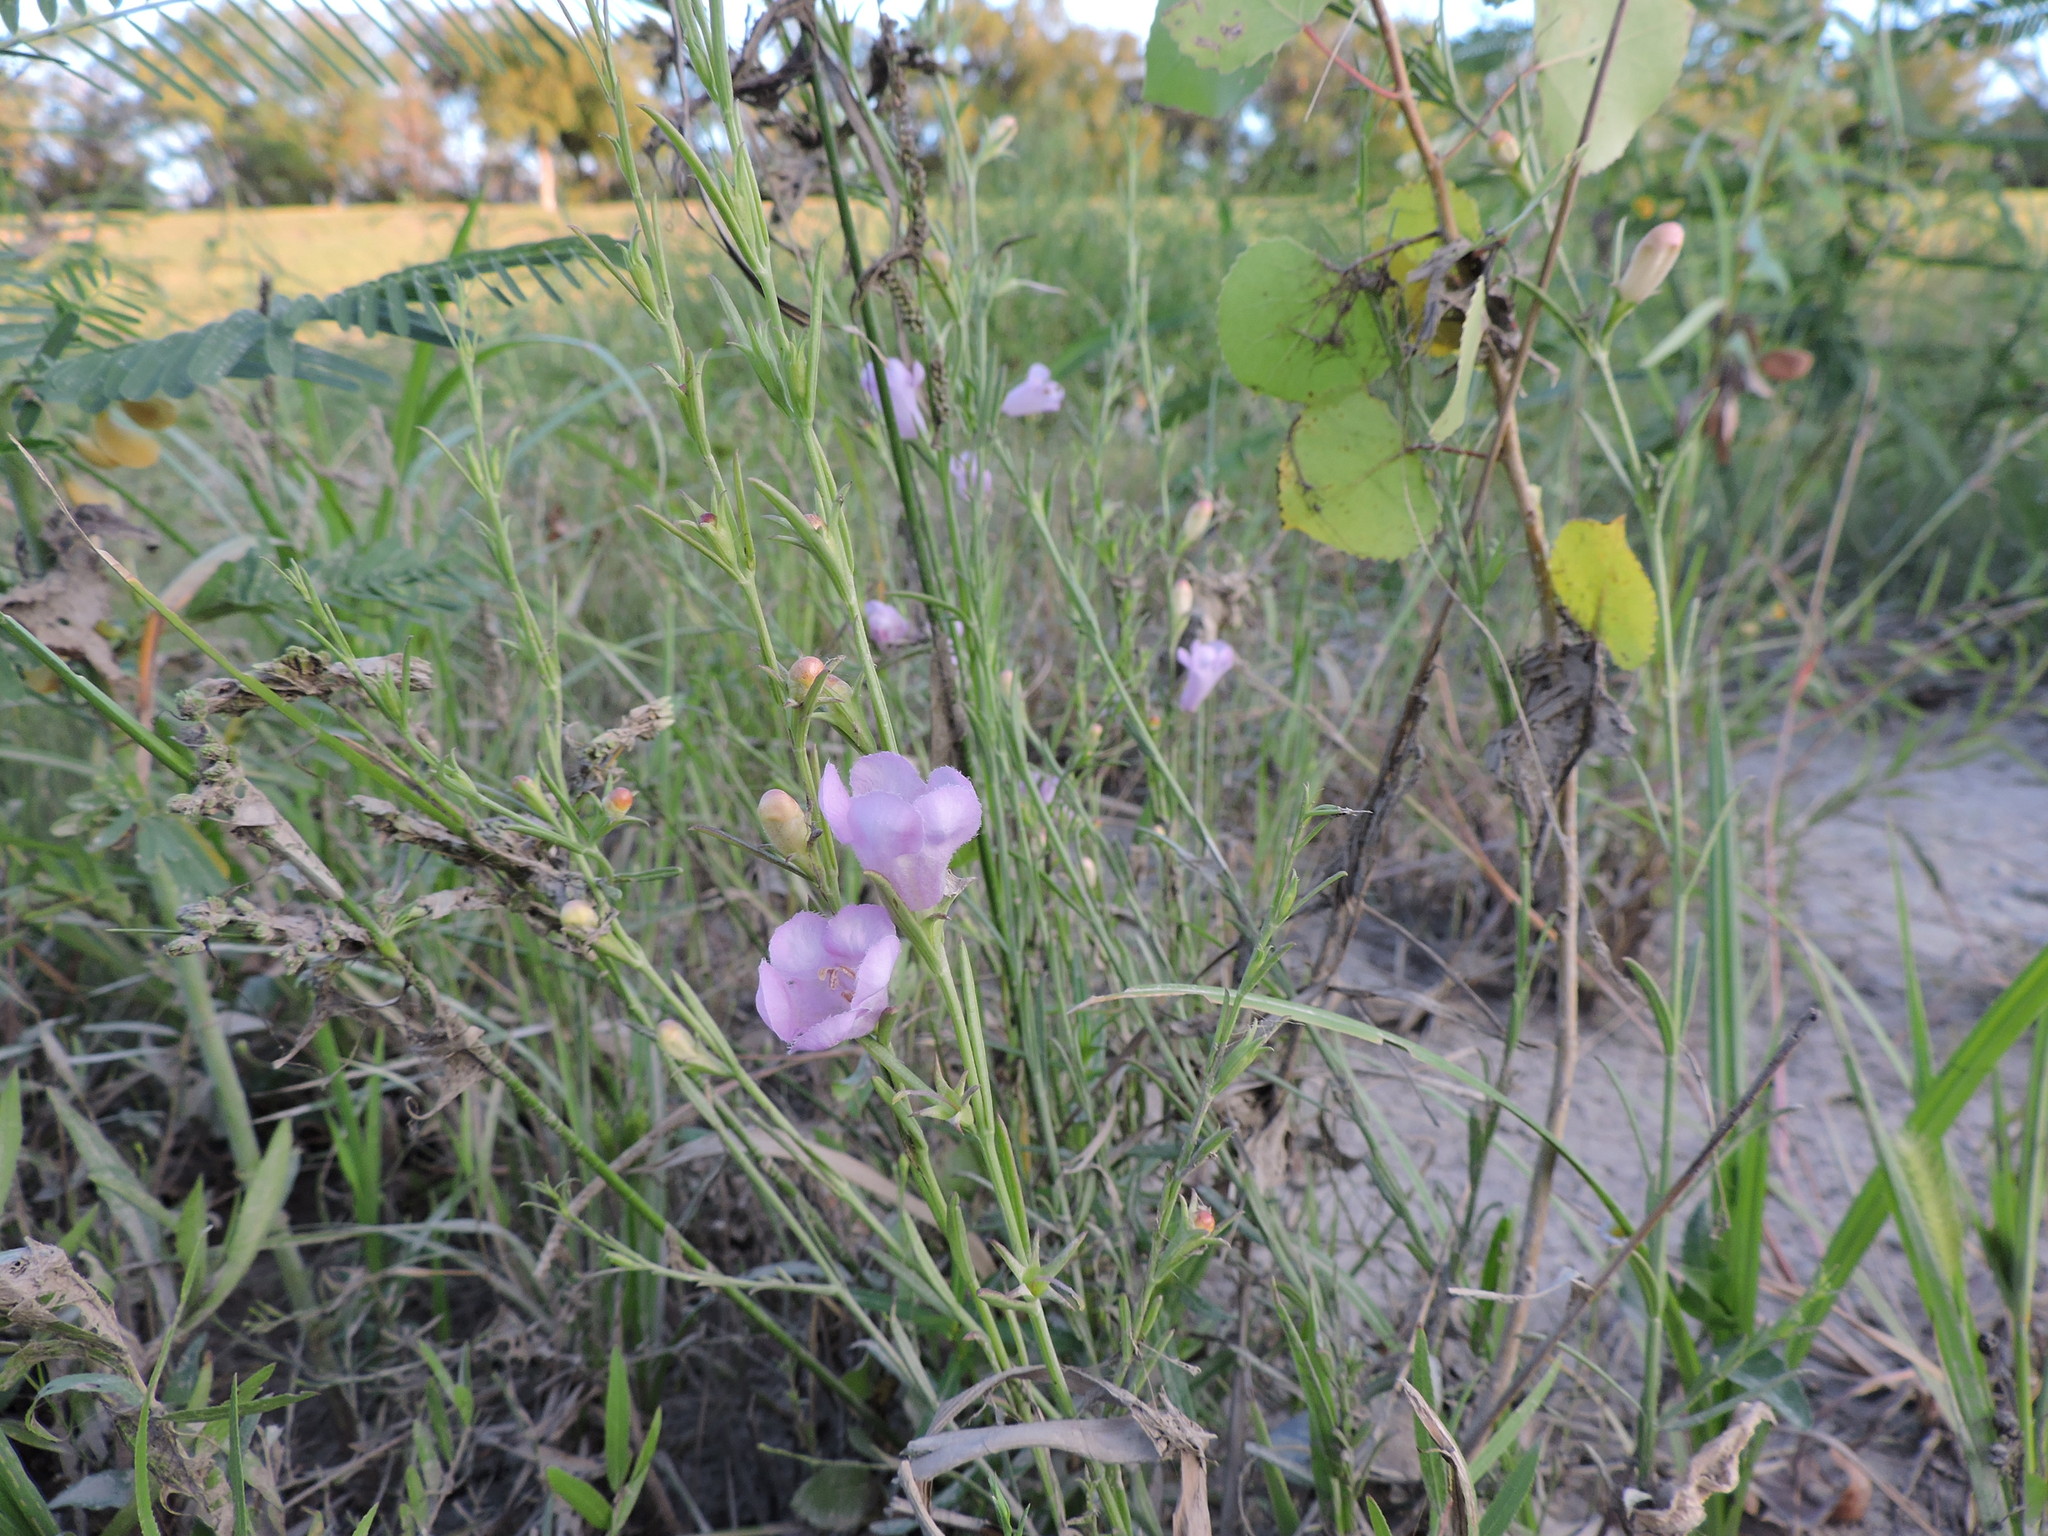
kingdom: Plantae
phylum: Tracheophyta
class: Magnoliopsida
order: Lamiales
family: Orobanchaceae
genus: Agalinis
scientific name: Agalinis heterophylla
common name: Prairie agalinis
